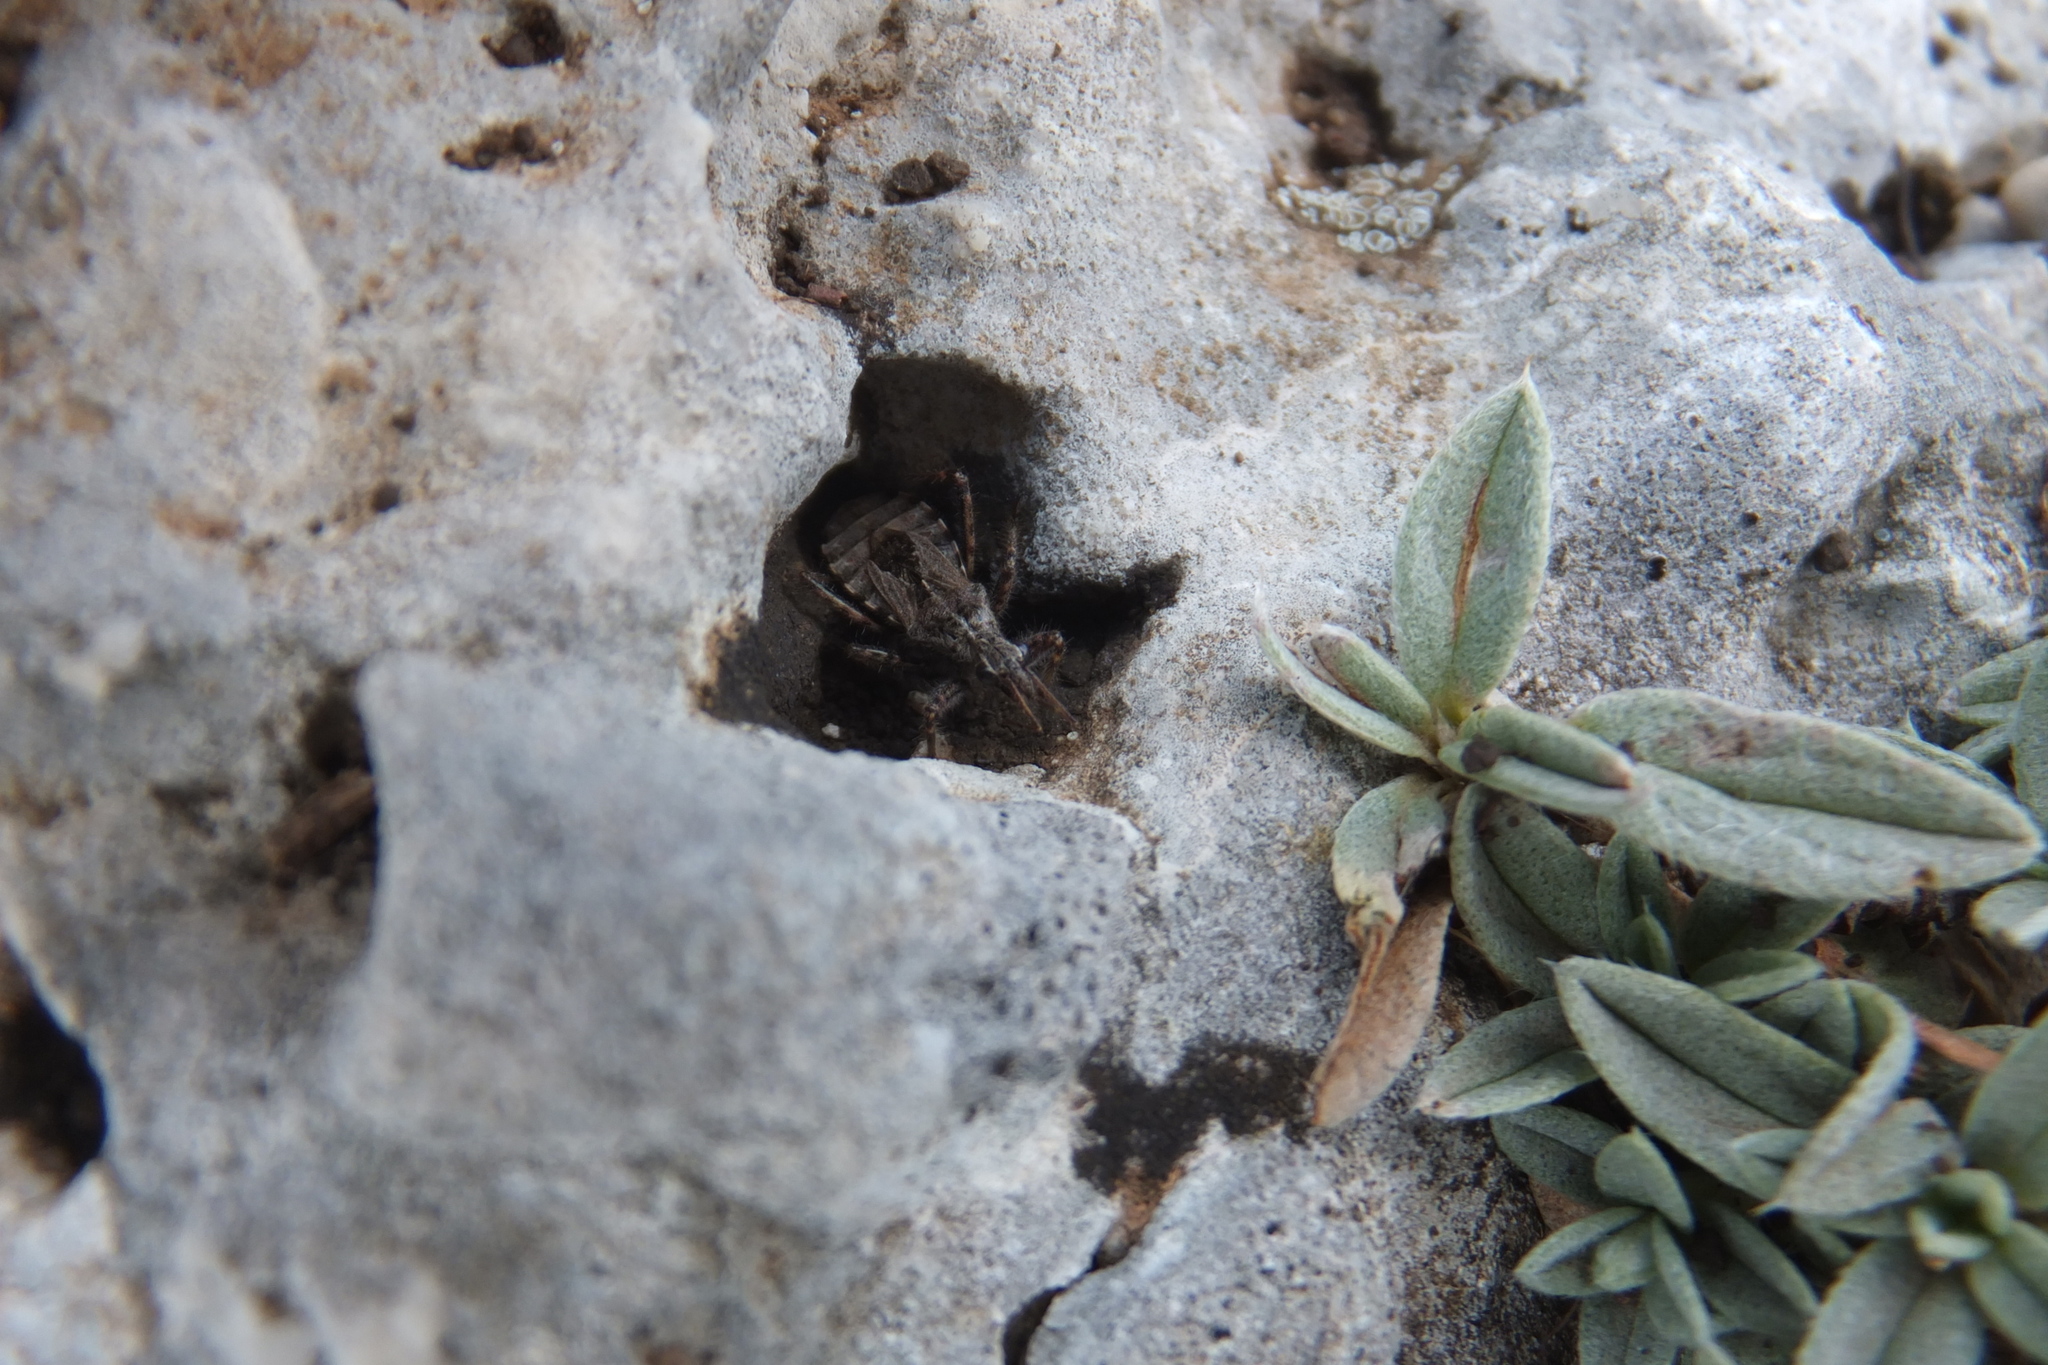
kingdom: Animalia
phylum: Arthropoda
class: Insecta
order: Hemiptera
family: Reduviidae
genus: Coranus
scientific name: Coranus subapterus
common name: Heath assassin bug
